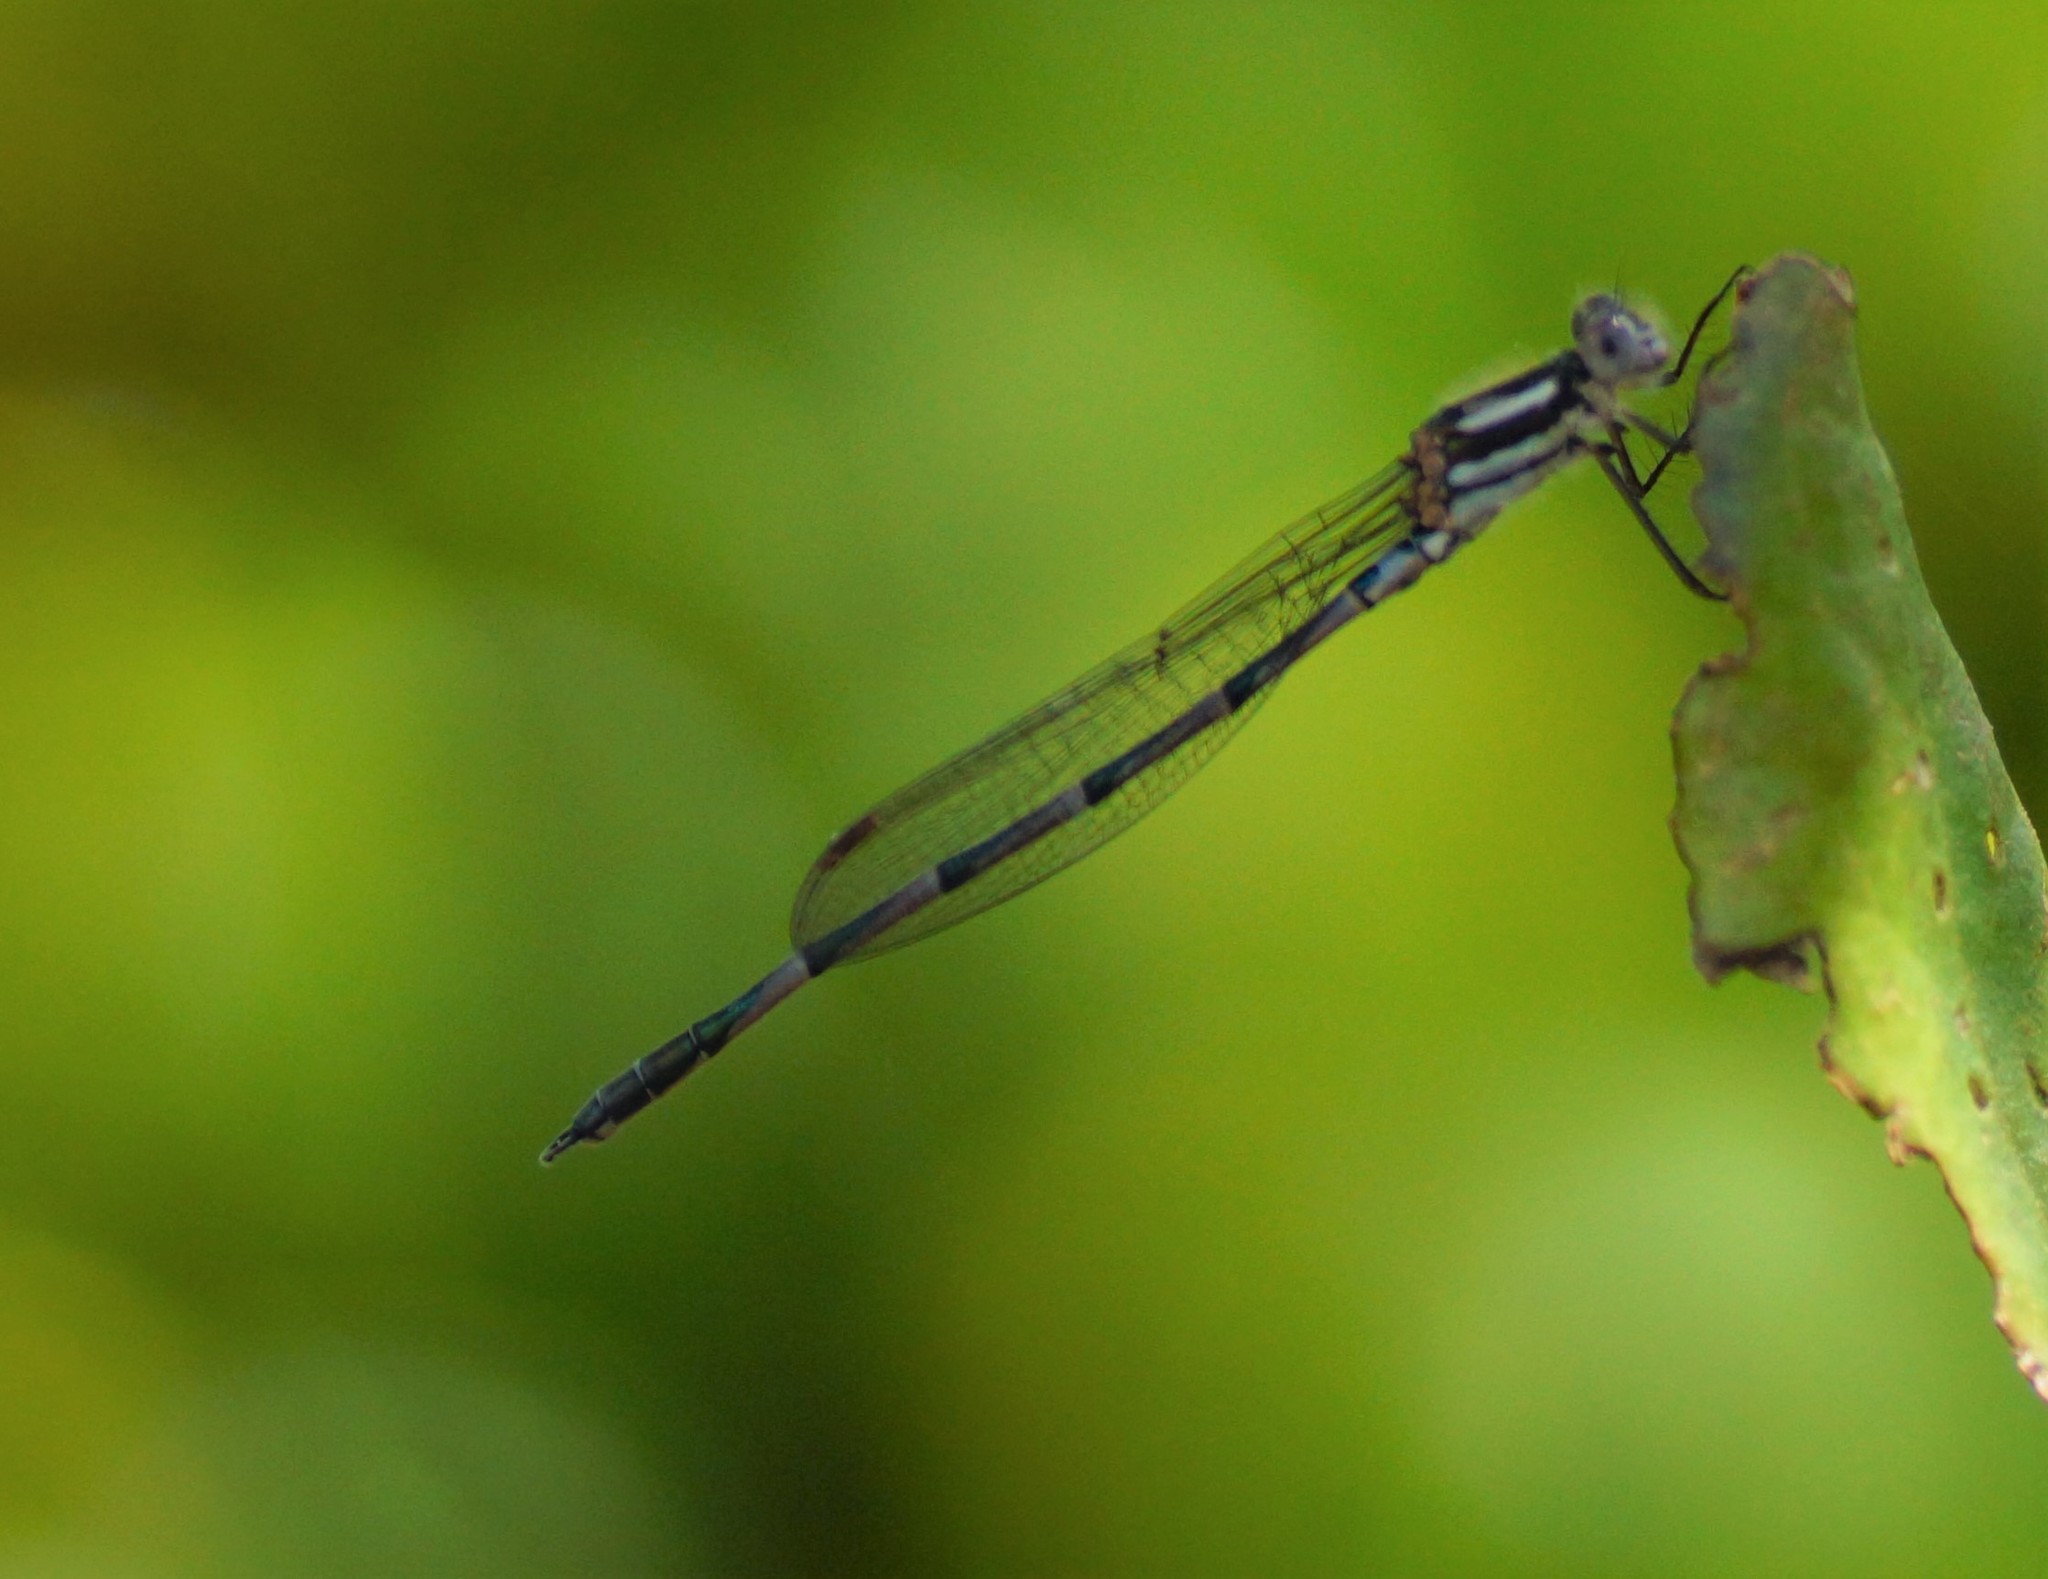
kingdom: Animalia
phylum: Arthropoda
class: Insecta
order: Odonata
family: Lestidae
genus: Austrolestes
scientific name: Austrolestes annulosus
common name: Blue ringtail
